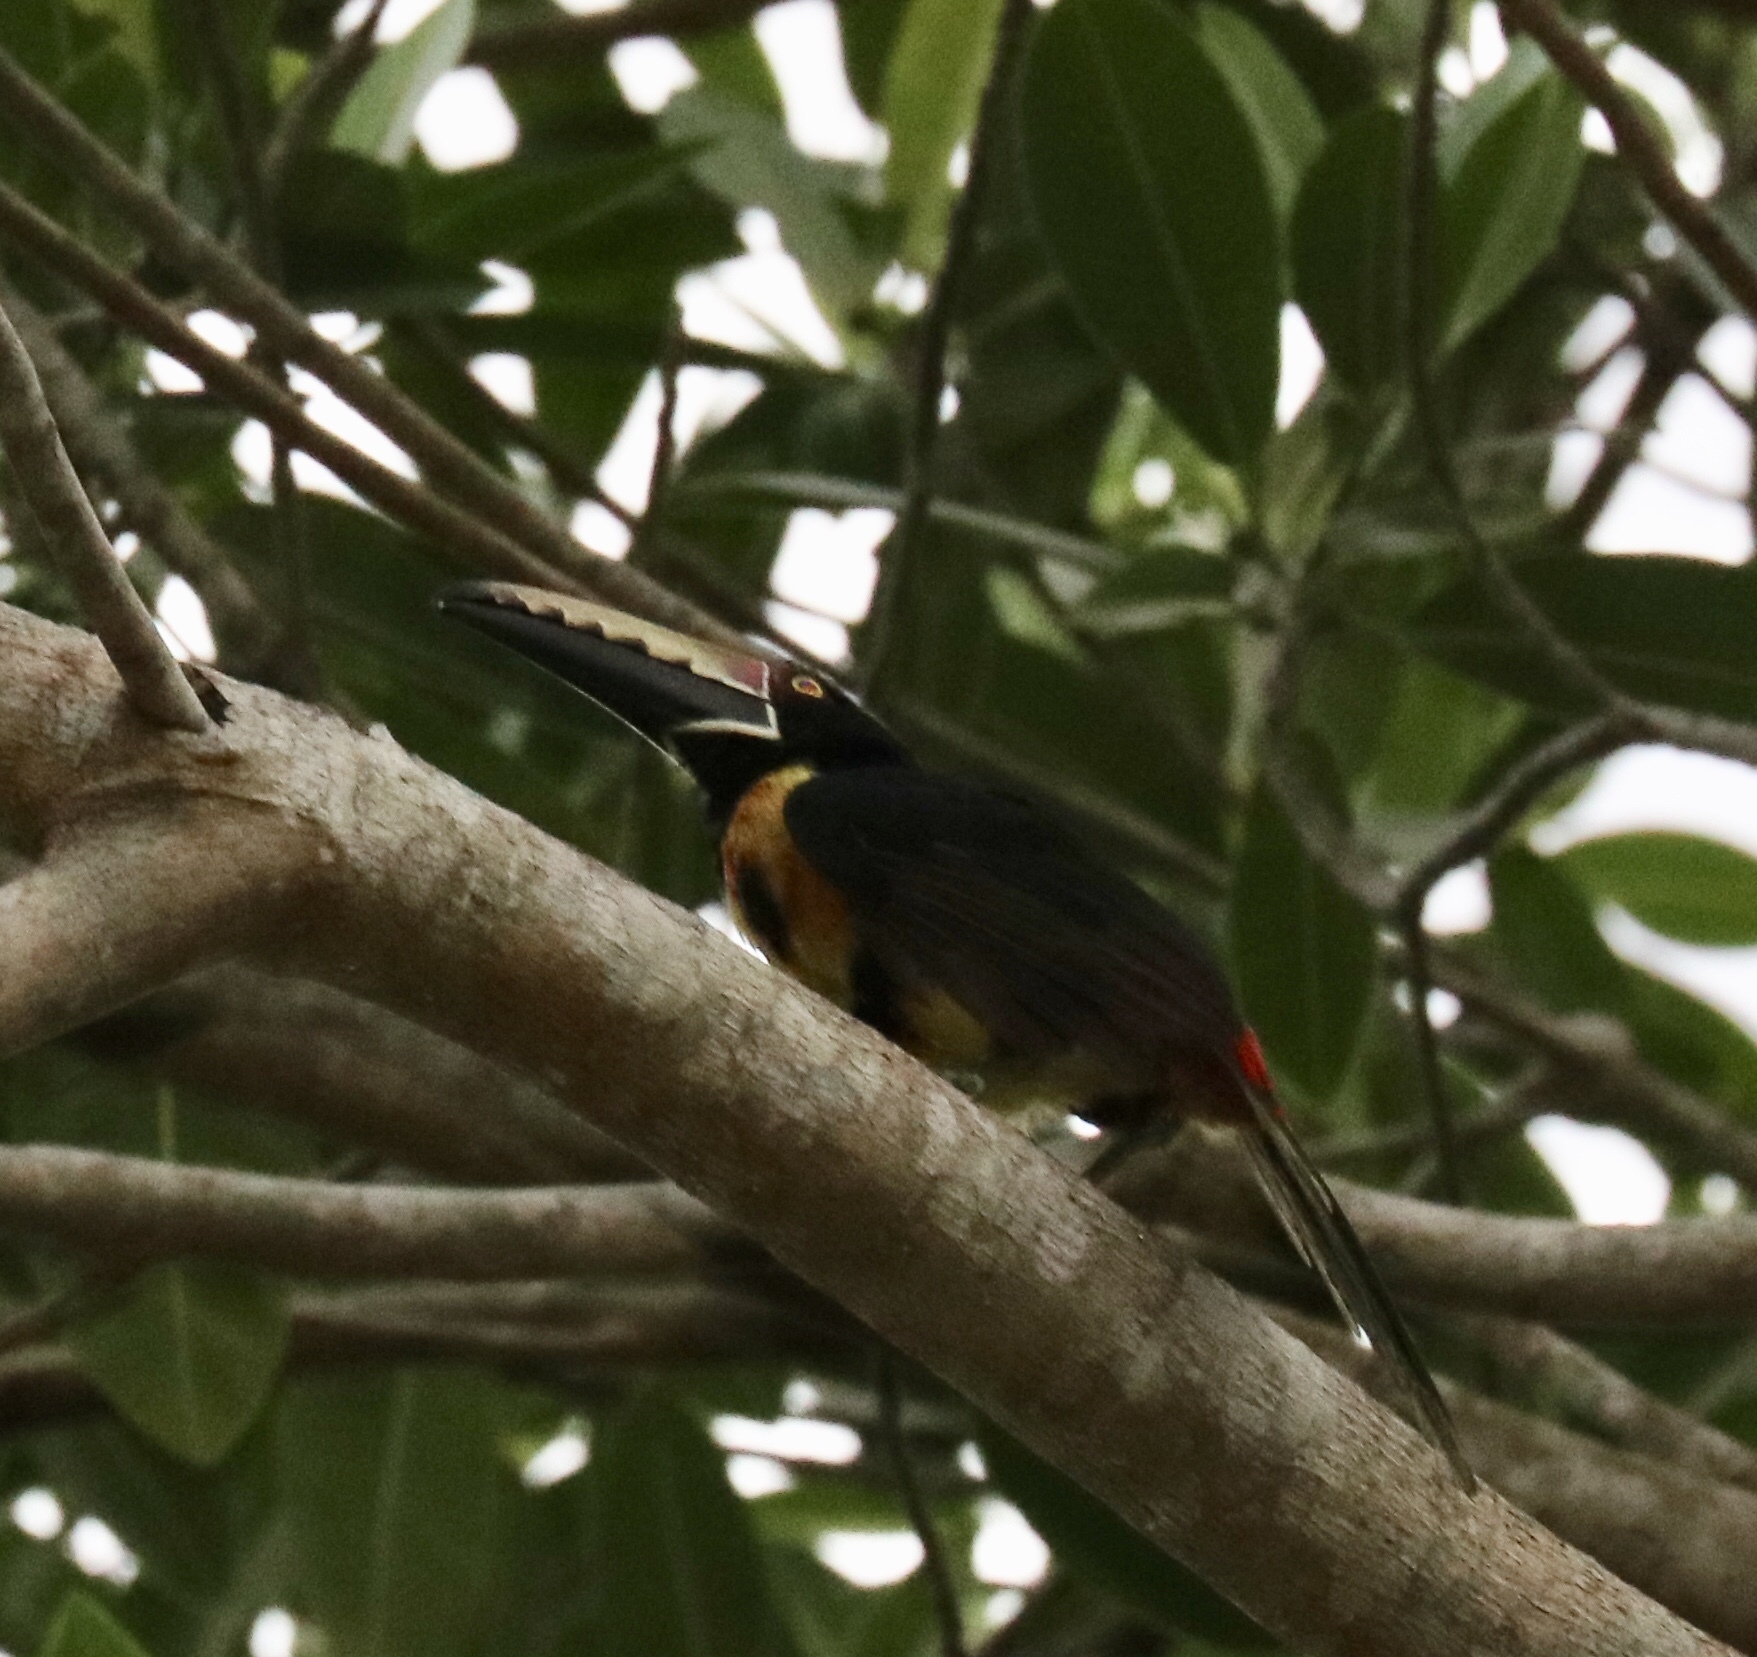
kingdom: Animalia
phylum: Chordata
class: Aves
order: Piciformes
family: Ramphastidae
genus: Pteroglossus
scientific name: Pteroglossus torquatus
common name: Collared aracari
